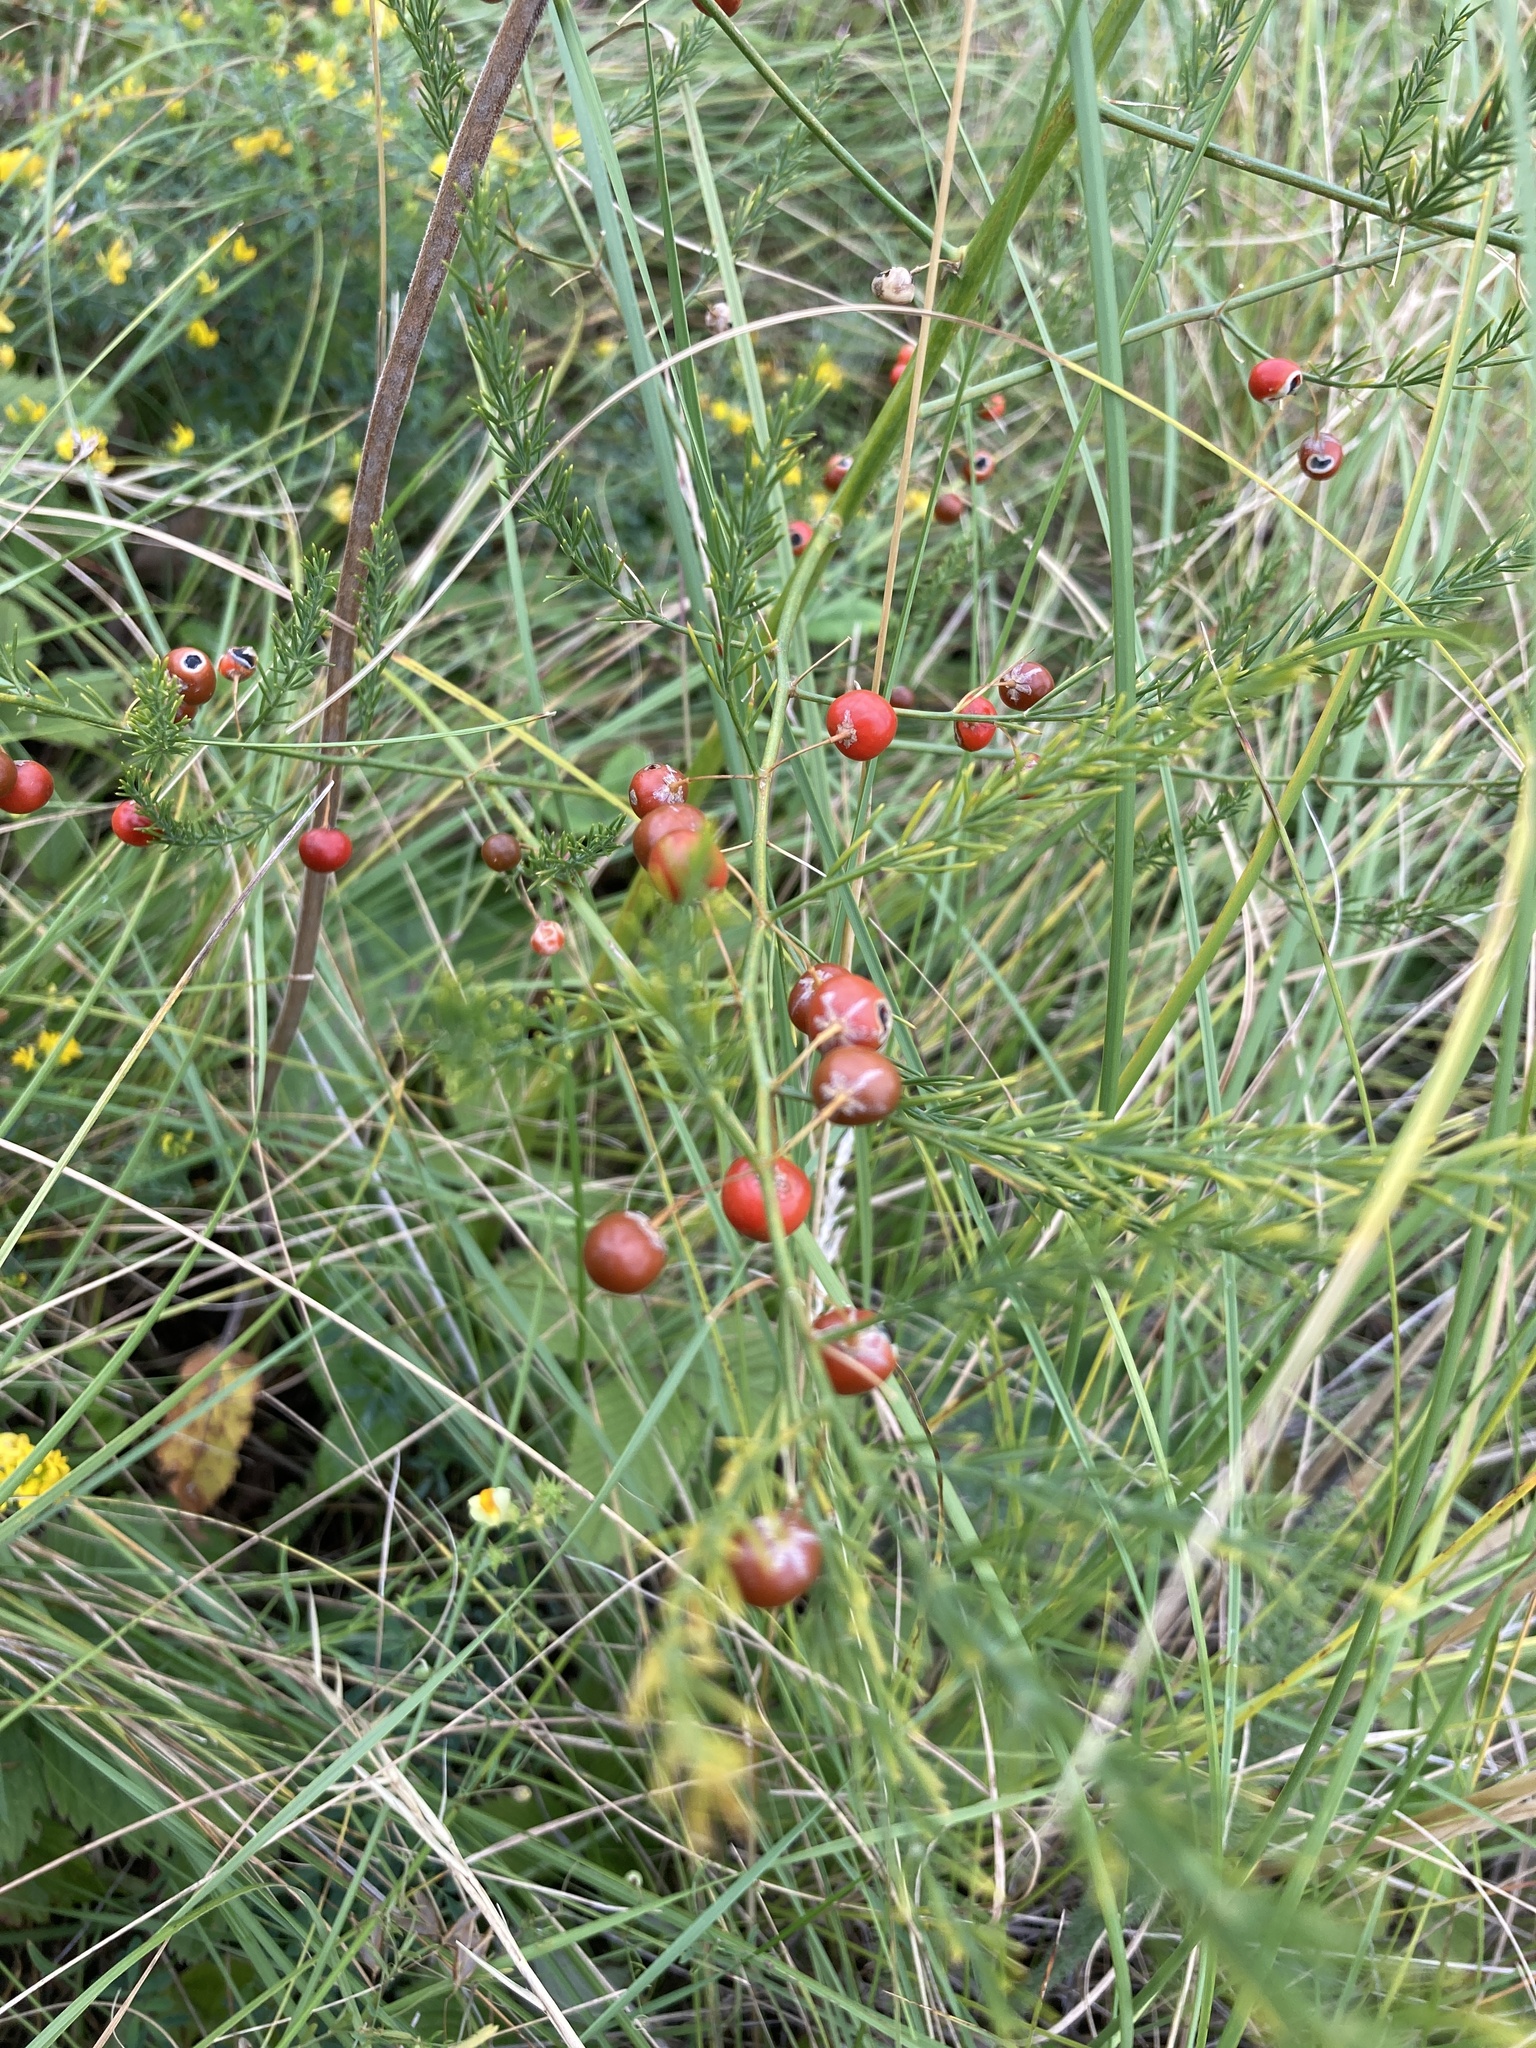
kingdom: Plantae
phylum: Tracheophyta
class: Liliopsida
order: Asparagales
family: Asparagaceae
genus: Asparagus
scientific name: Asparagus officinalis
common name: Garden asparagus
